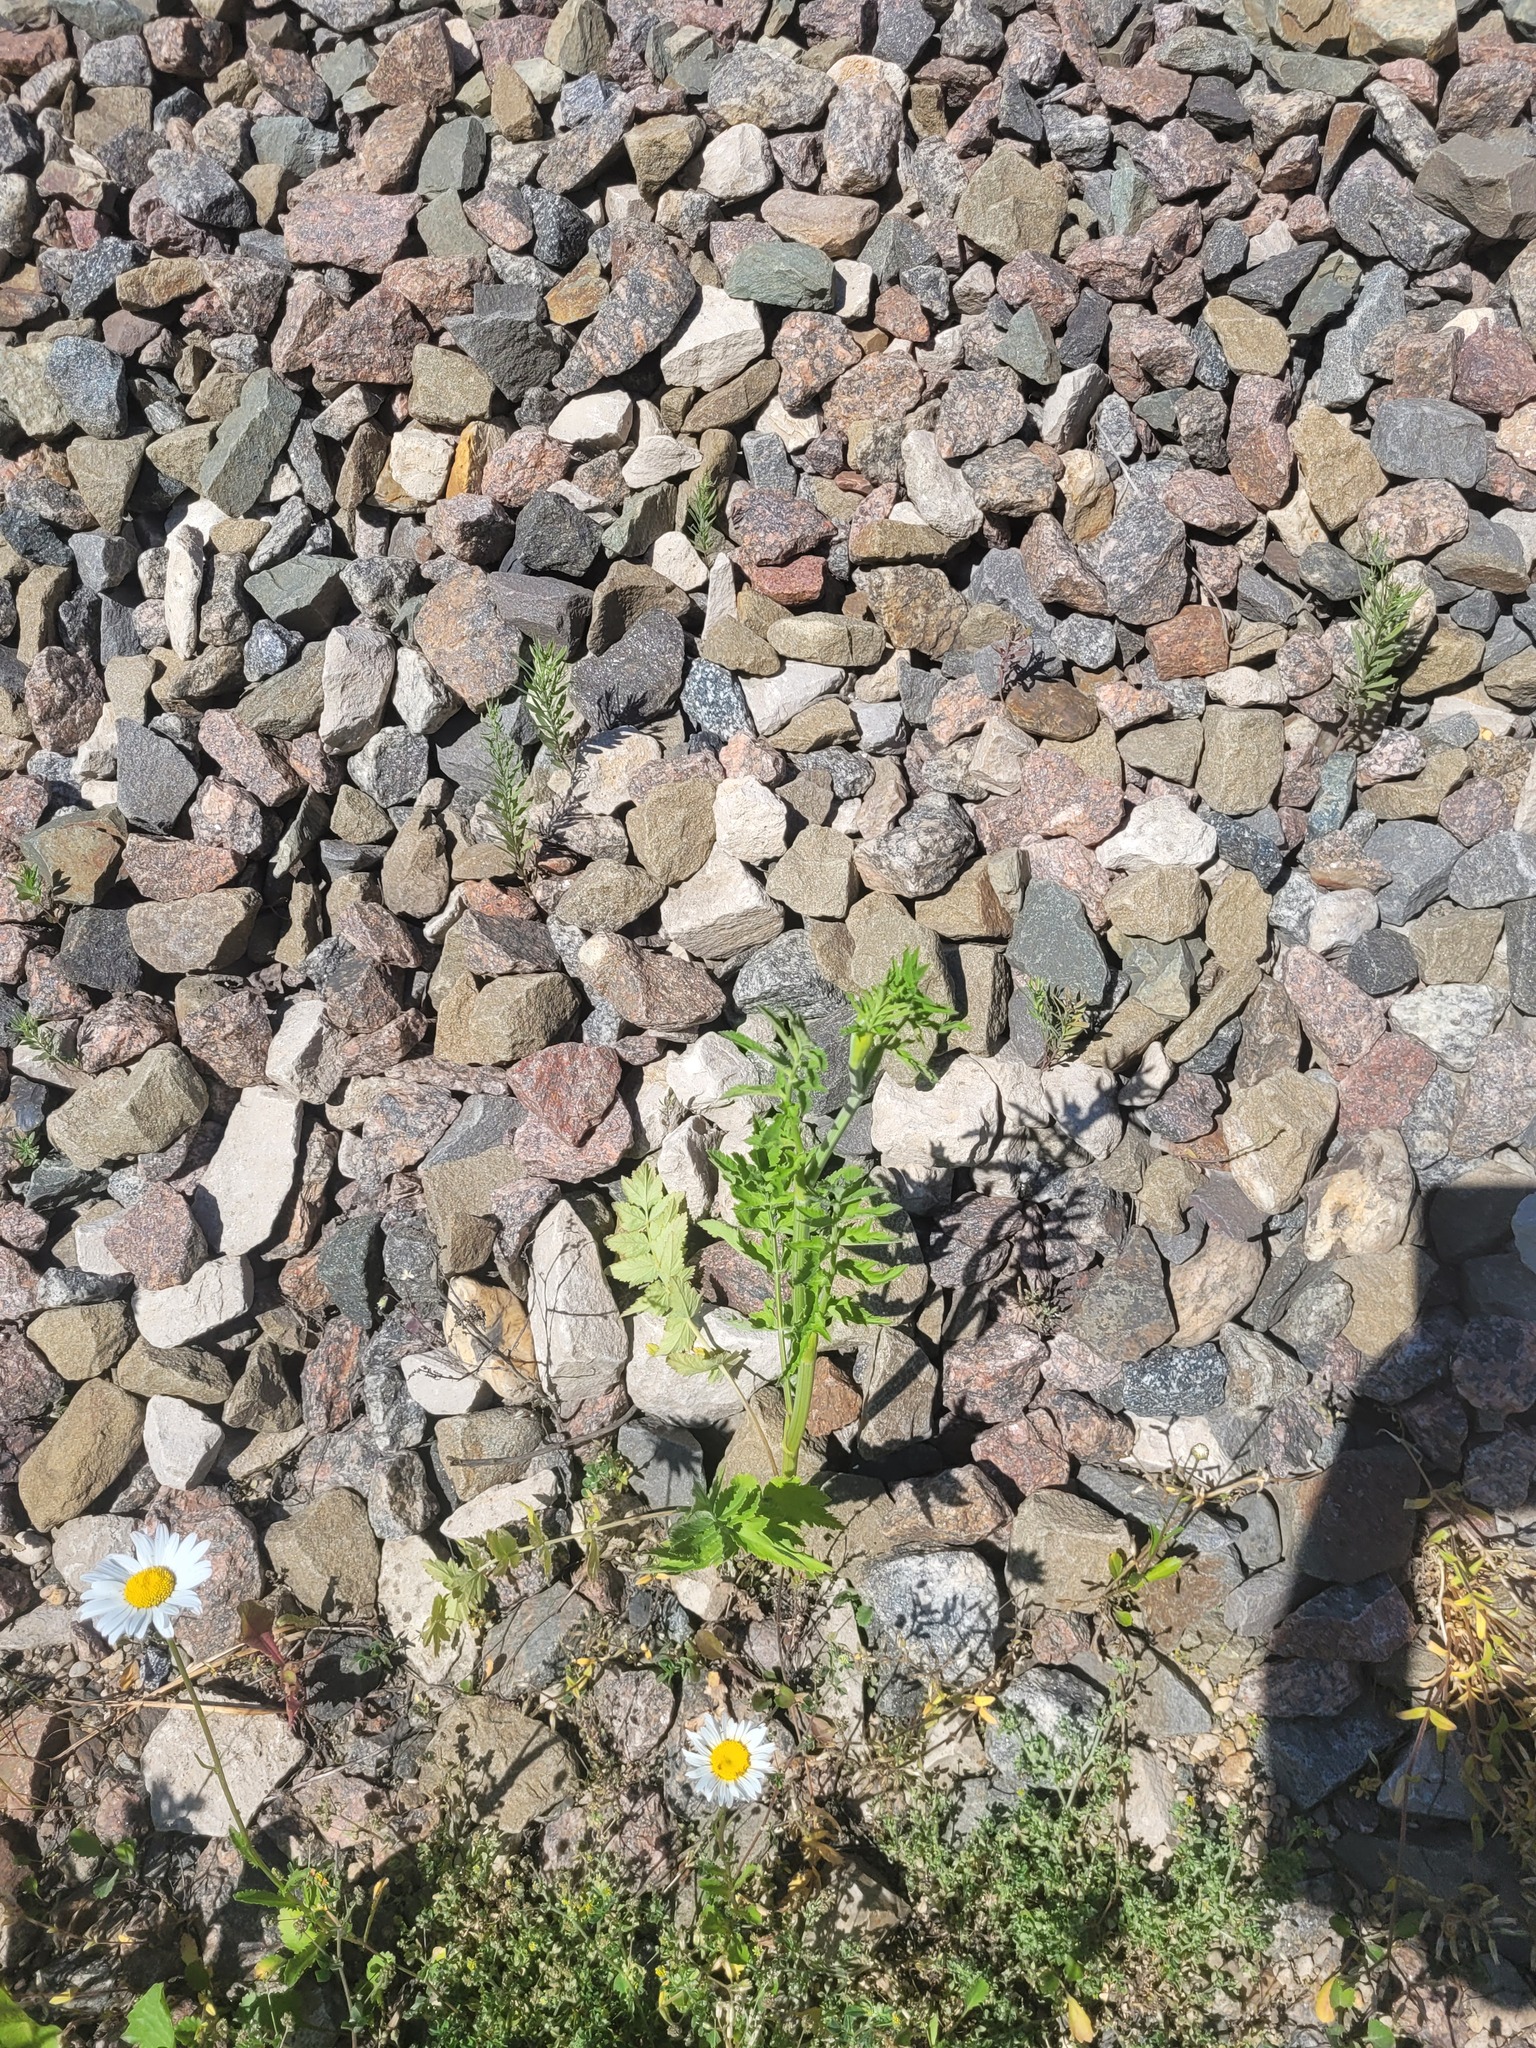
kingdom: Plantae
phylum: Tracheophyta
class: Magnoliopsida
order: Apiales
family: Apiaceae
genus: Pastinaca
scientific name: Pastinaca sativa
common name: Wild parsnip
